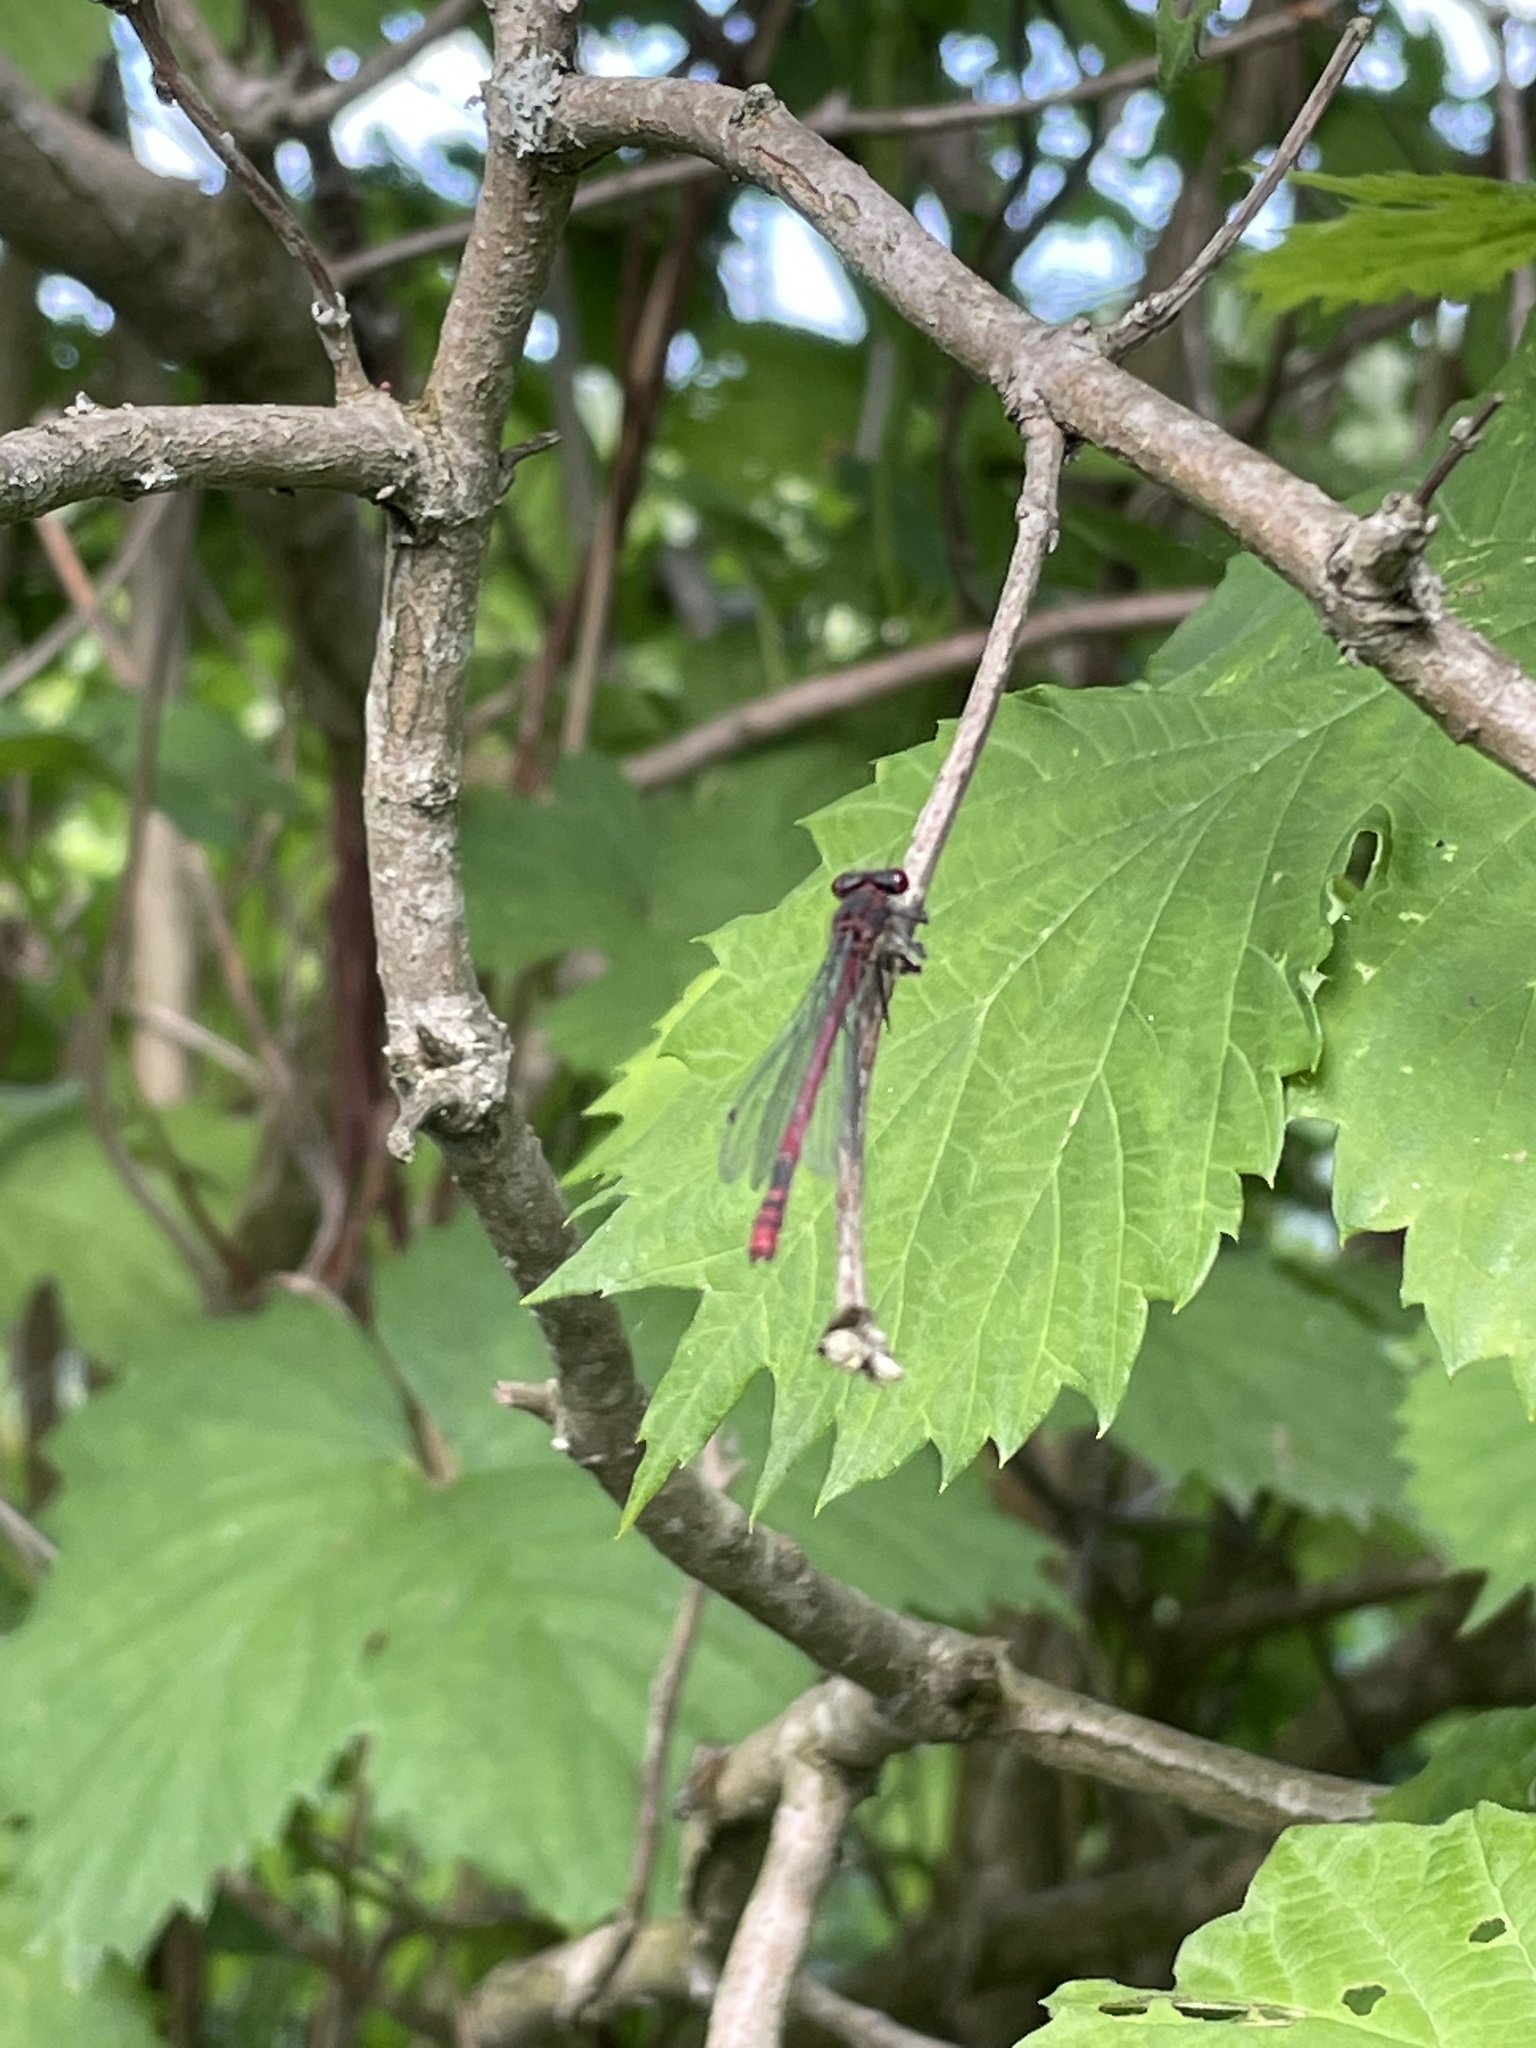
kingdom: Animalia
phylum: Arthropoda
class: Insecta
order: Odonata
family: Coenagrionidae
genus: Pyrrhosoma
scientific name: Pyrrhosoma nymphula
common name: Large red damsel
